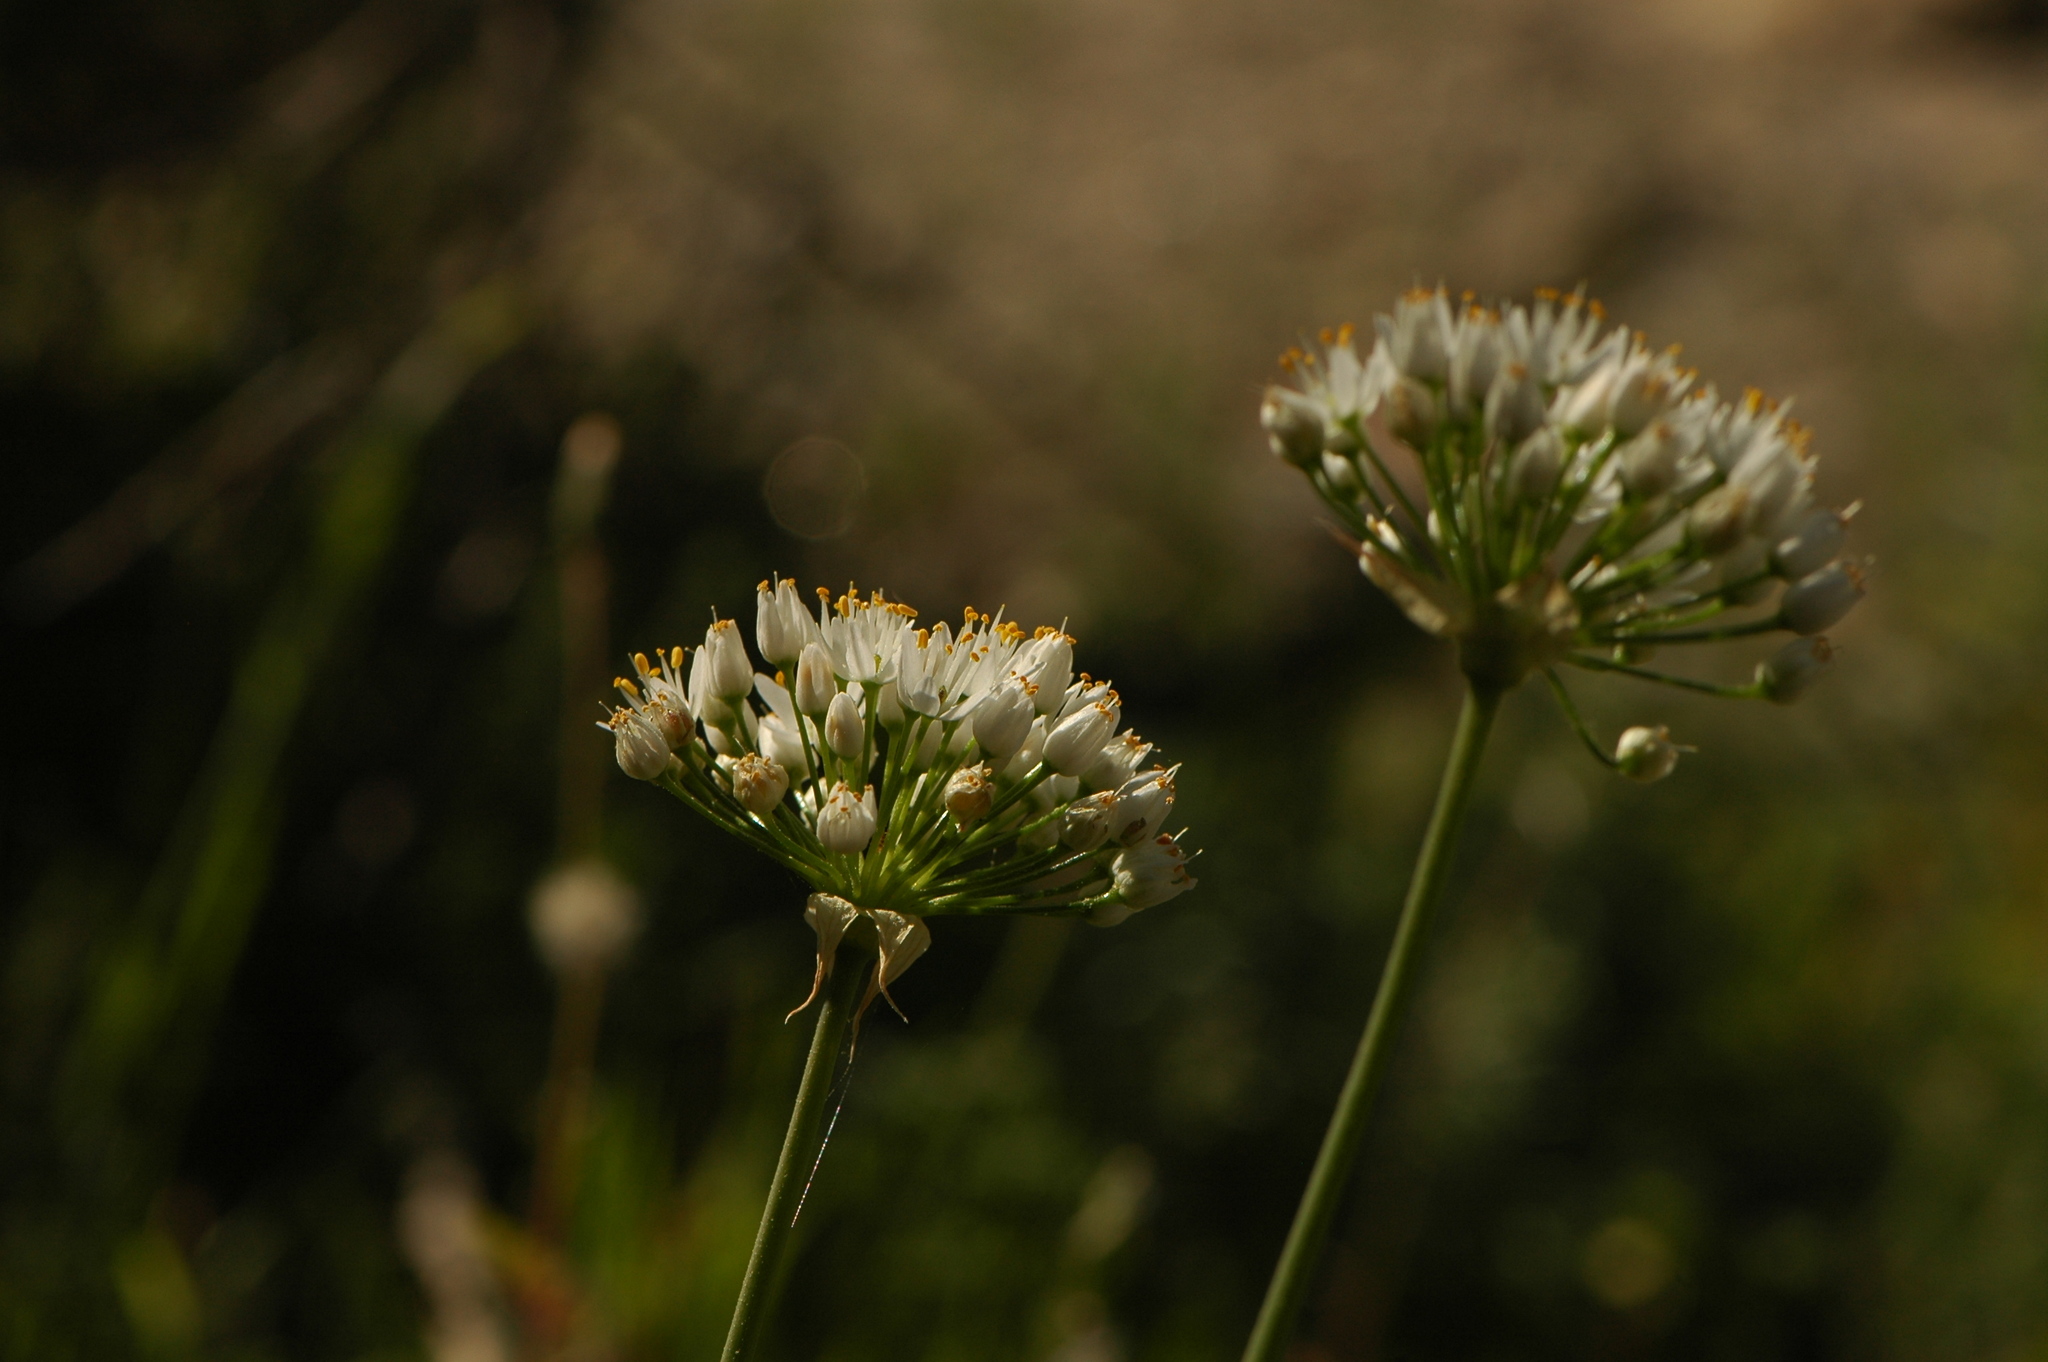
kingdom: Plantae
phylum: Tracheophyta
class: Liliopsida
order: Asparagales
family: Amaryllidaceae
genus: Allium
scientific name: Allium subvillosum
